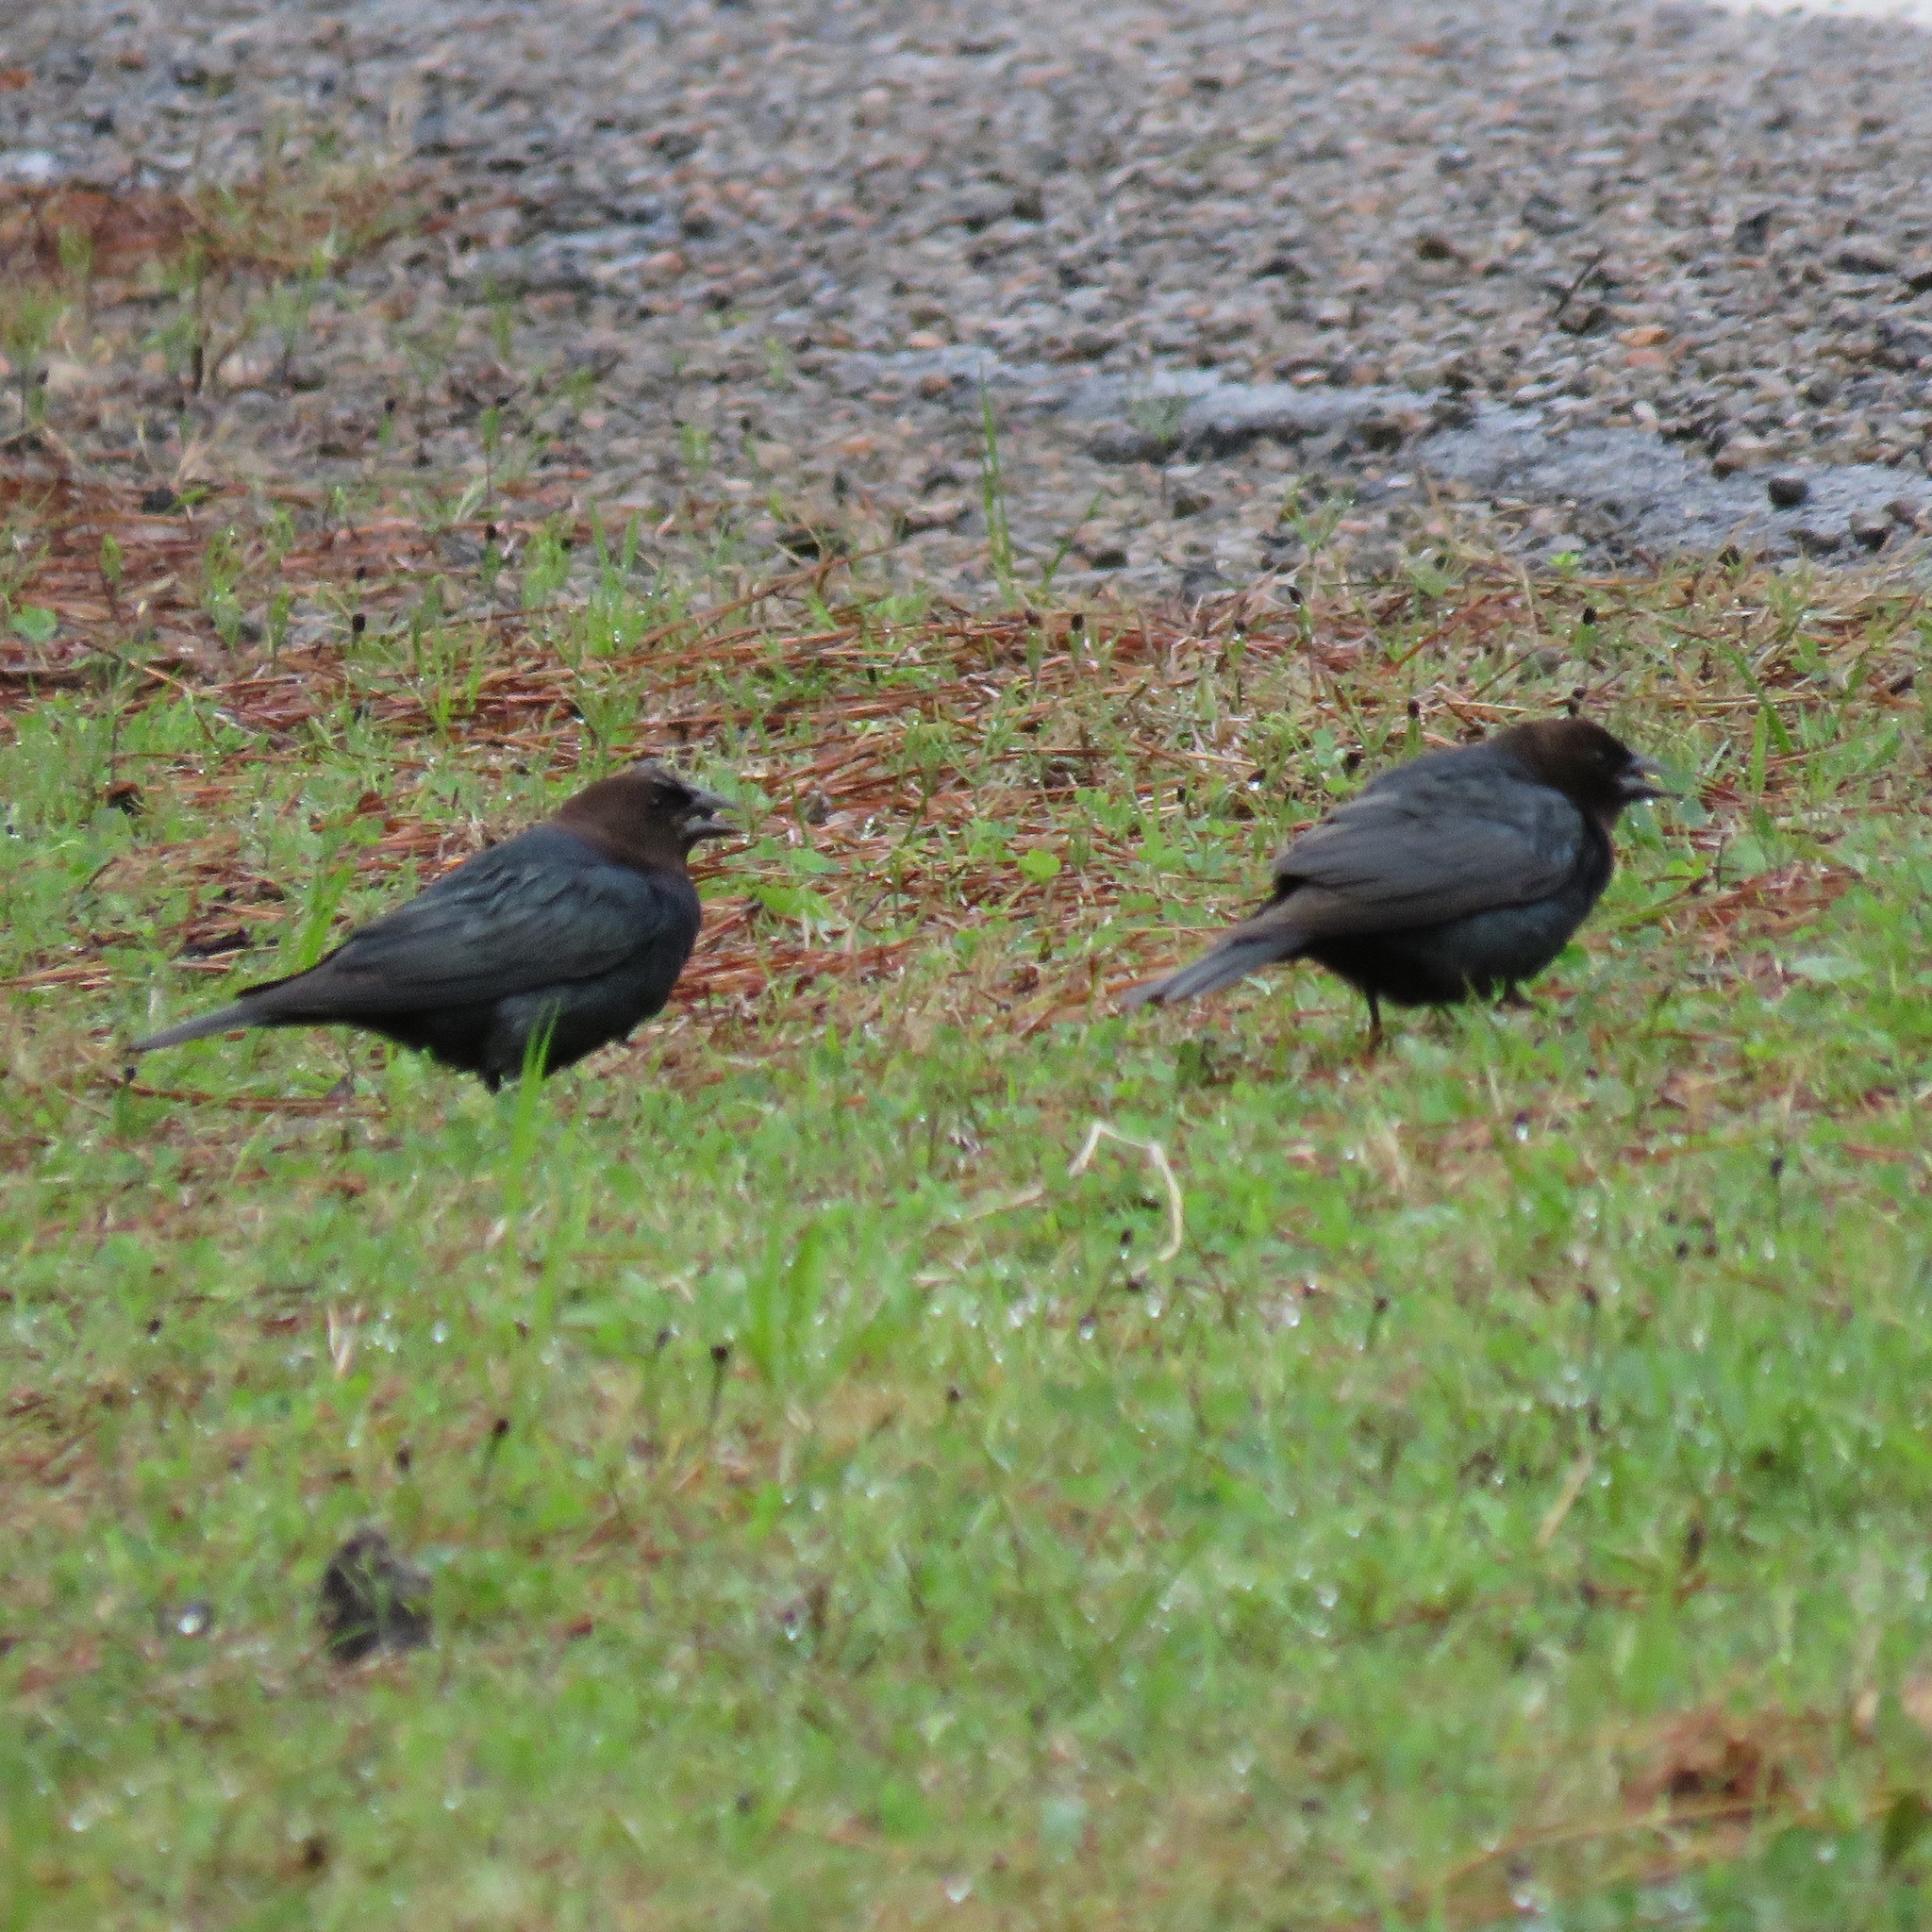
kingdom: Animalia
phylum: Chordata
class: Aves
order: Passeriformes
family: Icteridae
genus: Molothrus
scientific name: Molothrus ater
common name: Brown-headed cowbird
